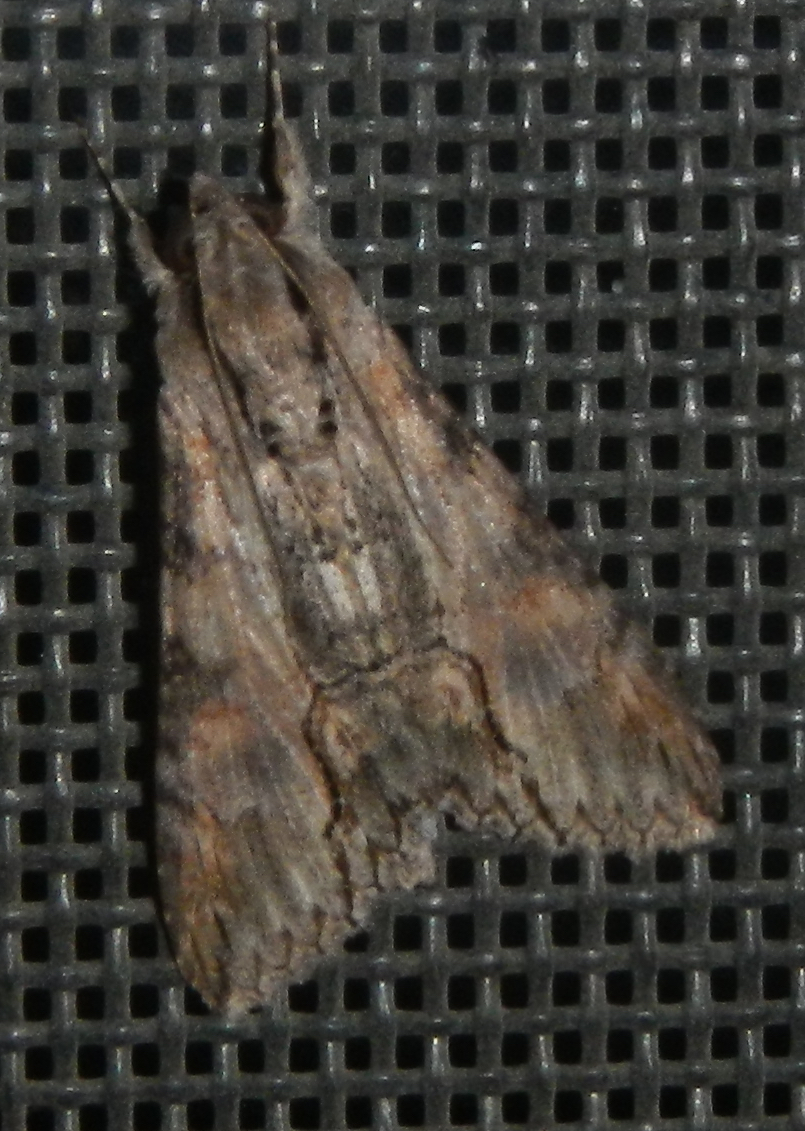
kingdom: Animalia
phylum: Arthropoda
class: Insecta
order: Lepidoptera
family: Erebidae
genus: Melipotis
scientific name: Melipotis acontioides
